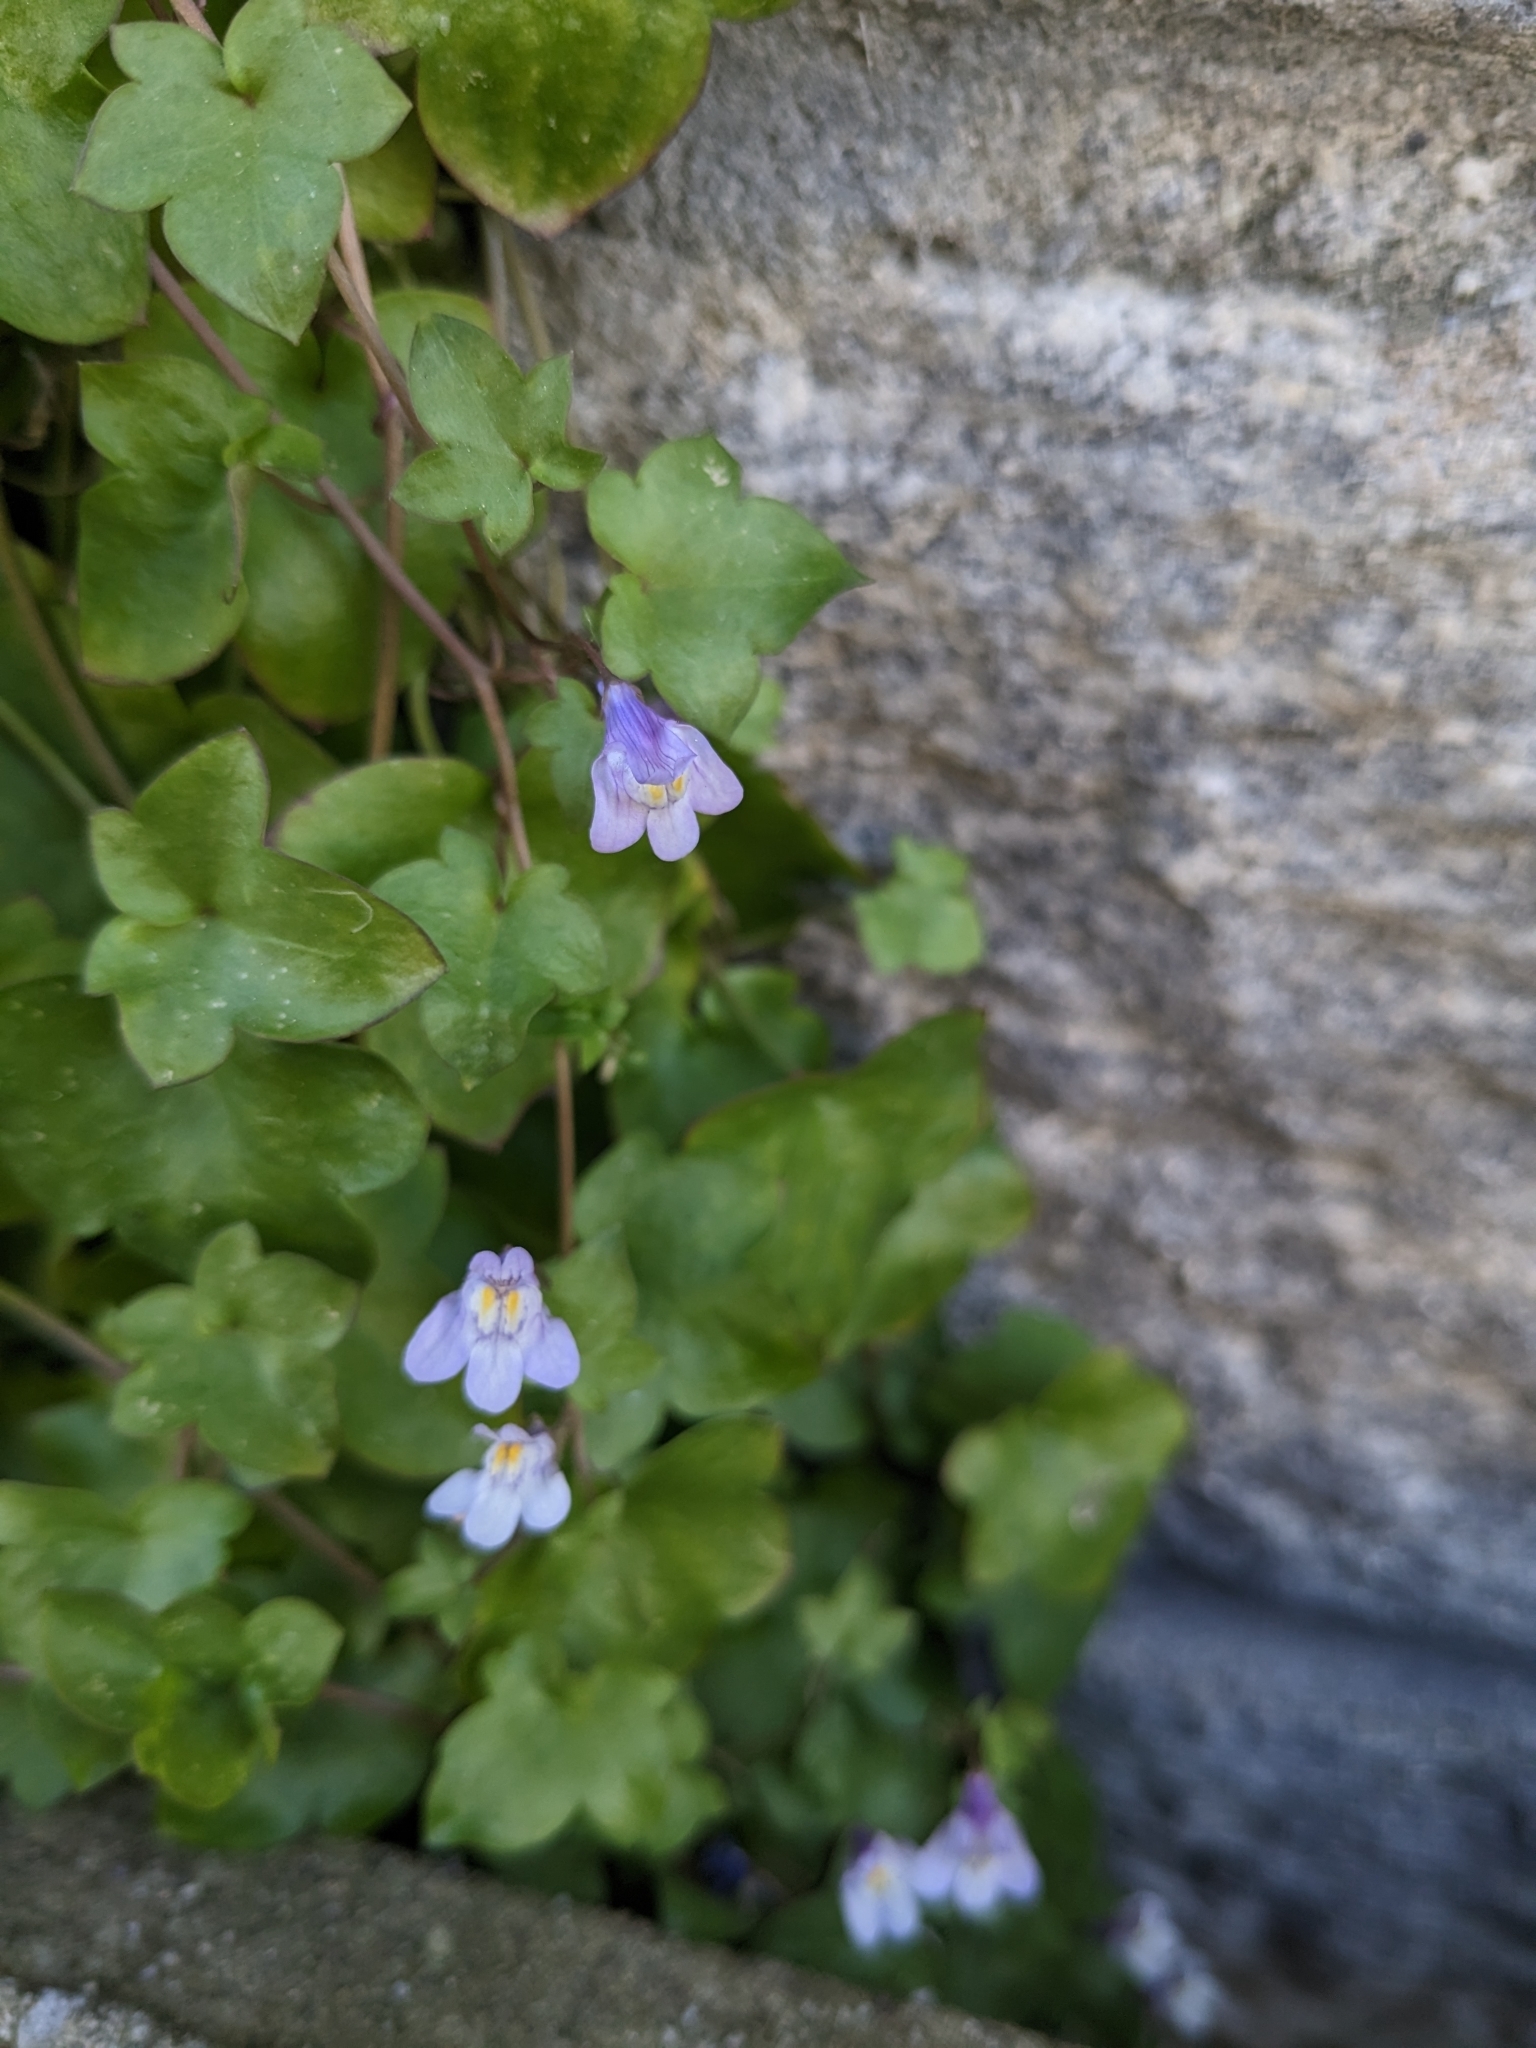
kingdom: Plantae
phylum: Tracheophyta
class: Magnoliopsida
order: Lamiales
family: Plantaginaceae
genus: Cymbalaria
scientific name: Cymbalaria muralis
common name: Ivy-leaved toadflax
